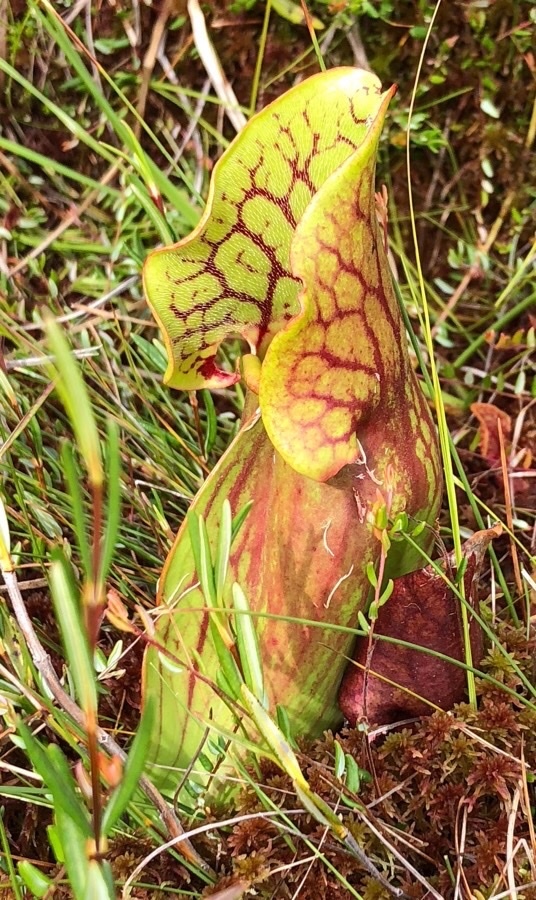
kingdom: Plantae
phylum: Tracheophyta
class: Magnoliopsida
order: Ericales
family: Sarraceniaceae
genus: Sarracenia
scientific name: Sarracenia purpurea
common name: Pitcherplant
